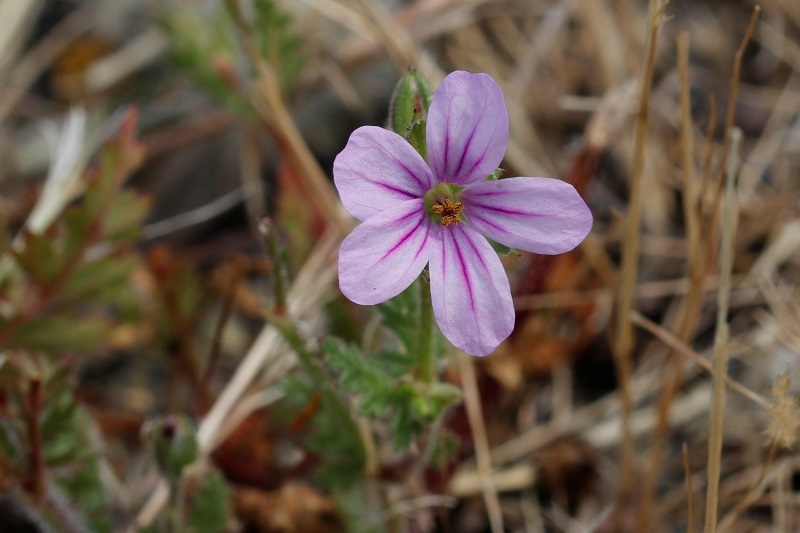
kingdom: Plantae
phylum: Tracheophyta
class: Magnoliopsida
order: Geraniales
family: Geraniaceae
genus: Erodium
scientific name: Erodium botrys
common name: Mediterranean stork's-bill
